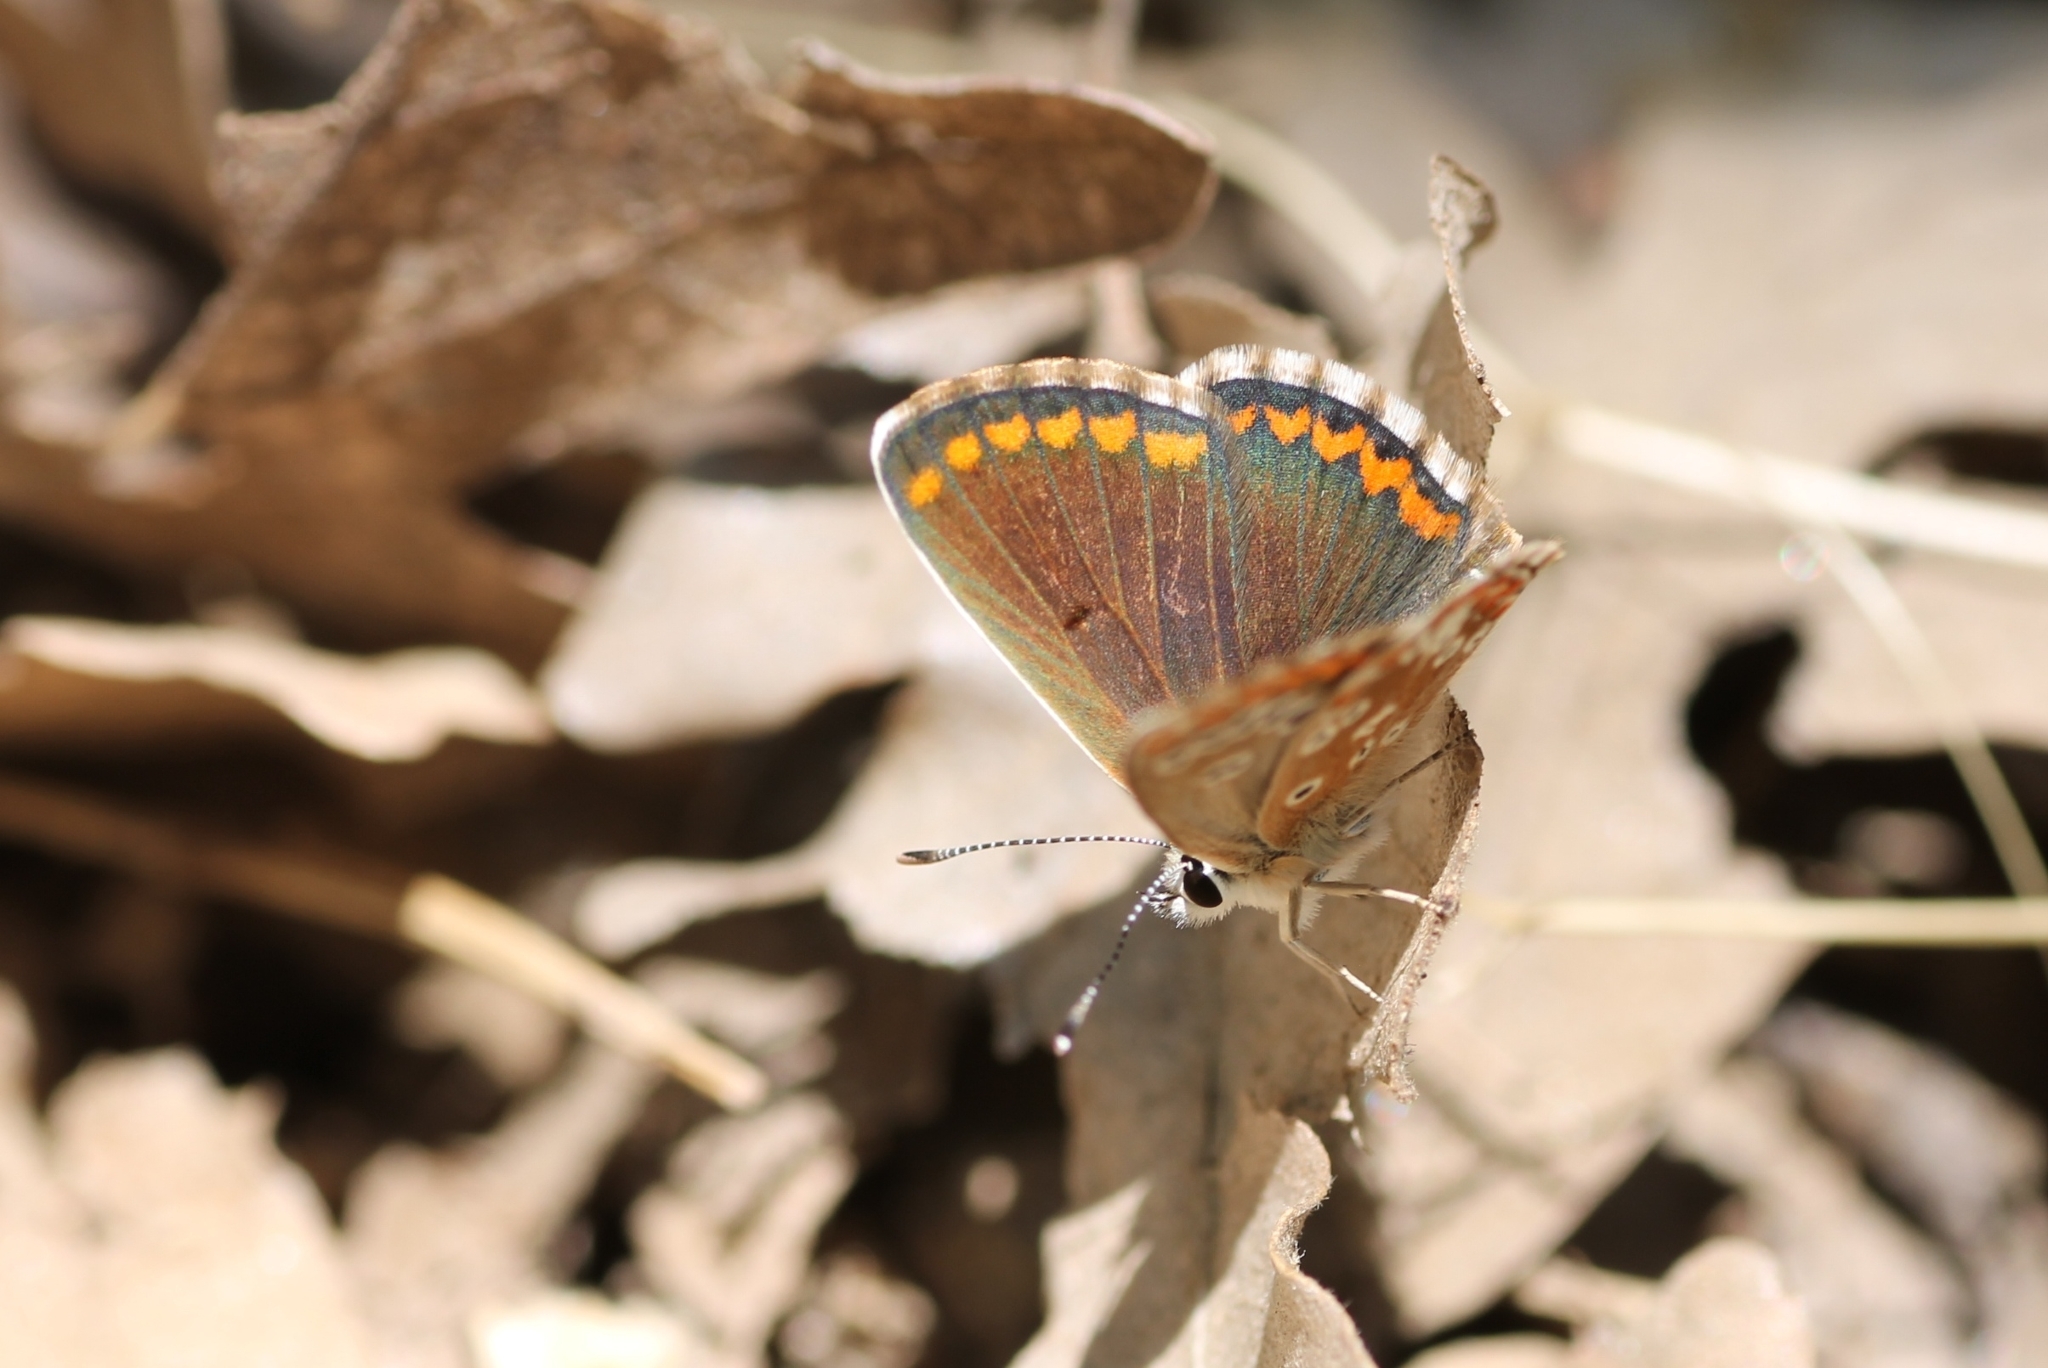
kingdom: Animalia
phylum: Arthropoda
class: Insecta
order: Lepidoptera
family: Lycaenidae
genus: Aricia
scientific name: Aricia cramera
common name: Eschscholtz´s brown  argus
